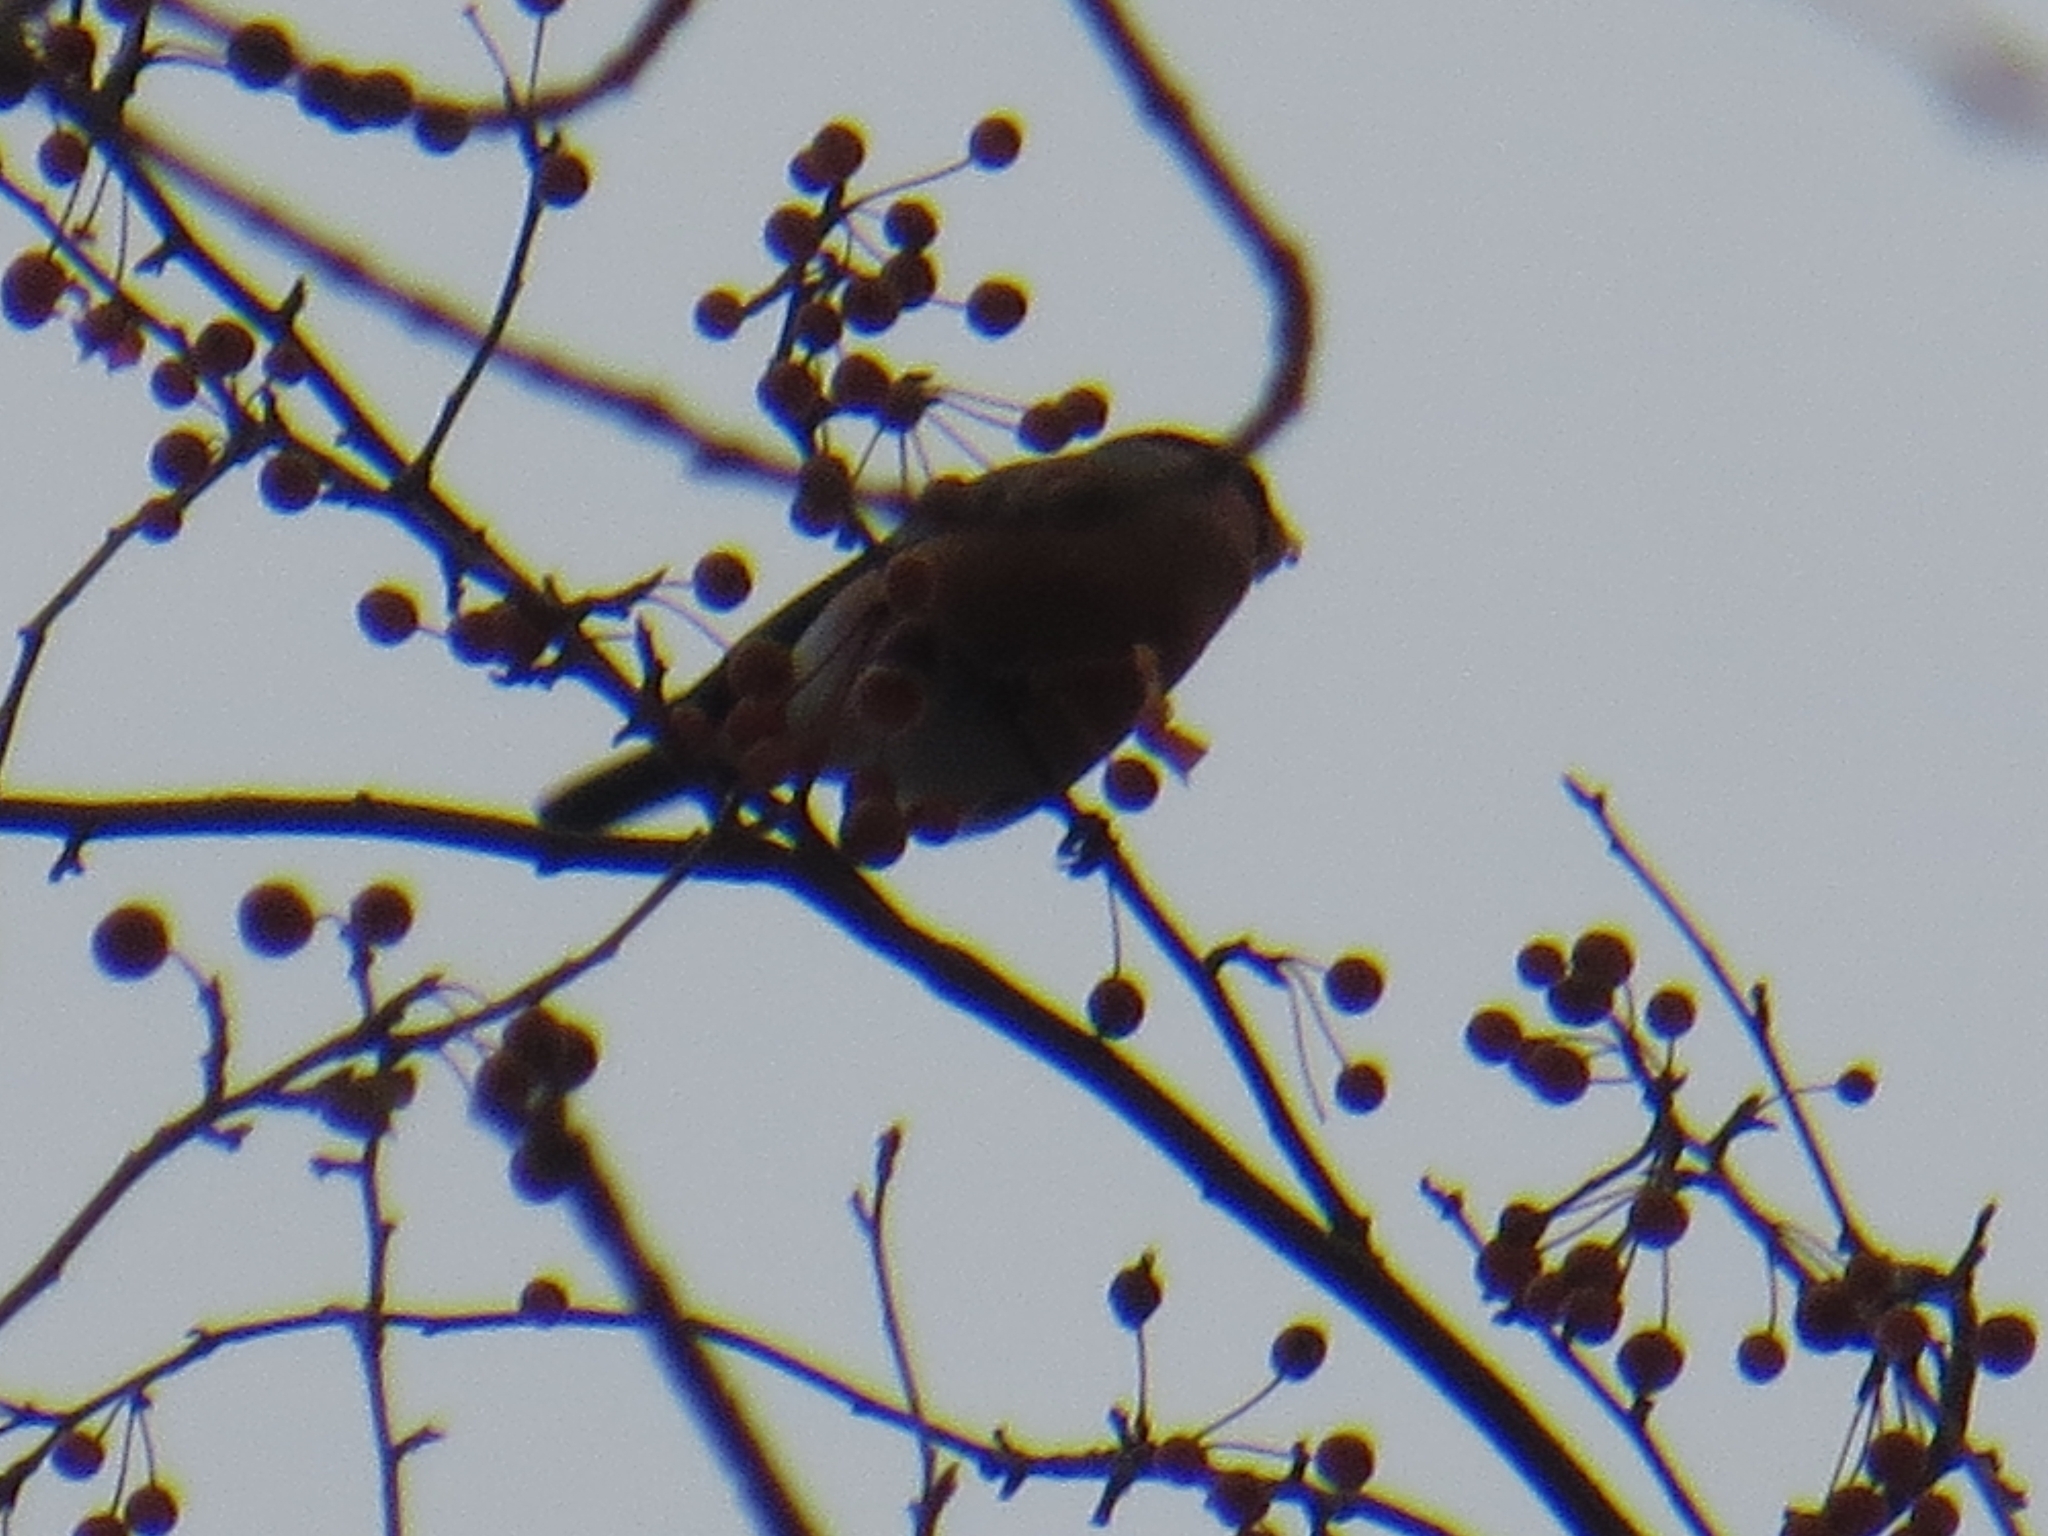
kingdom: Animalia
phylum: Chordata
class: Aves
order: Passeriformes
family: Fringillidae
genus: Pyrrhula
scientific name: Pyrrhula pyrrhula
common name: Eurasian bullfinch
